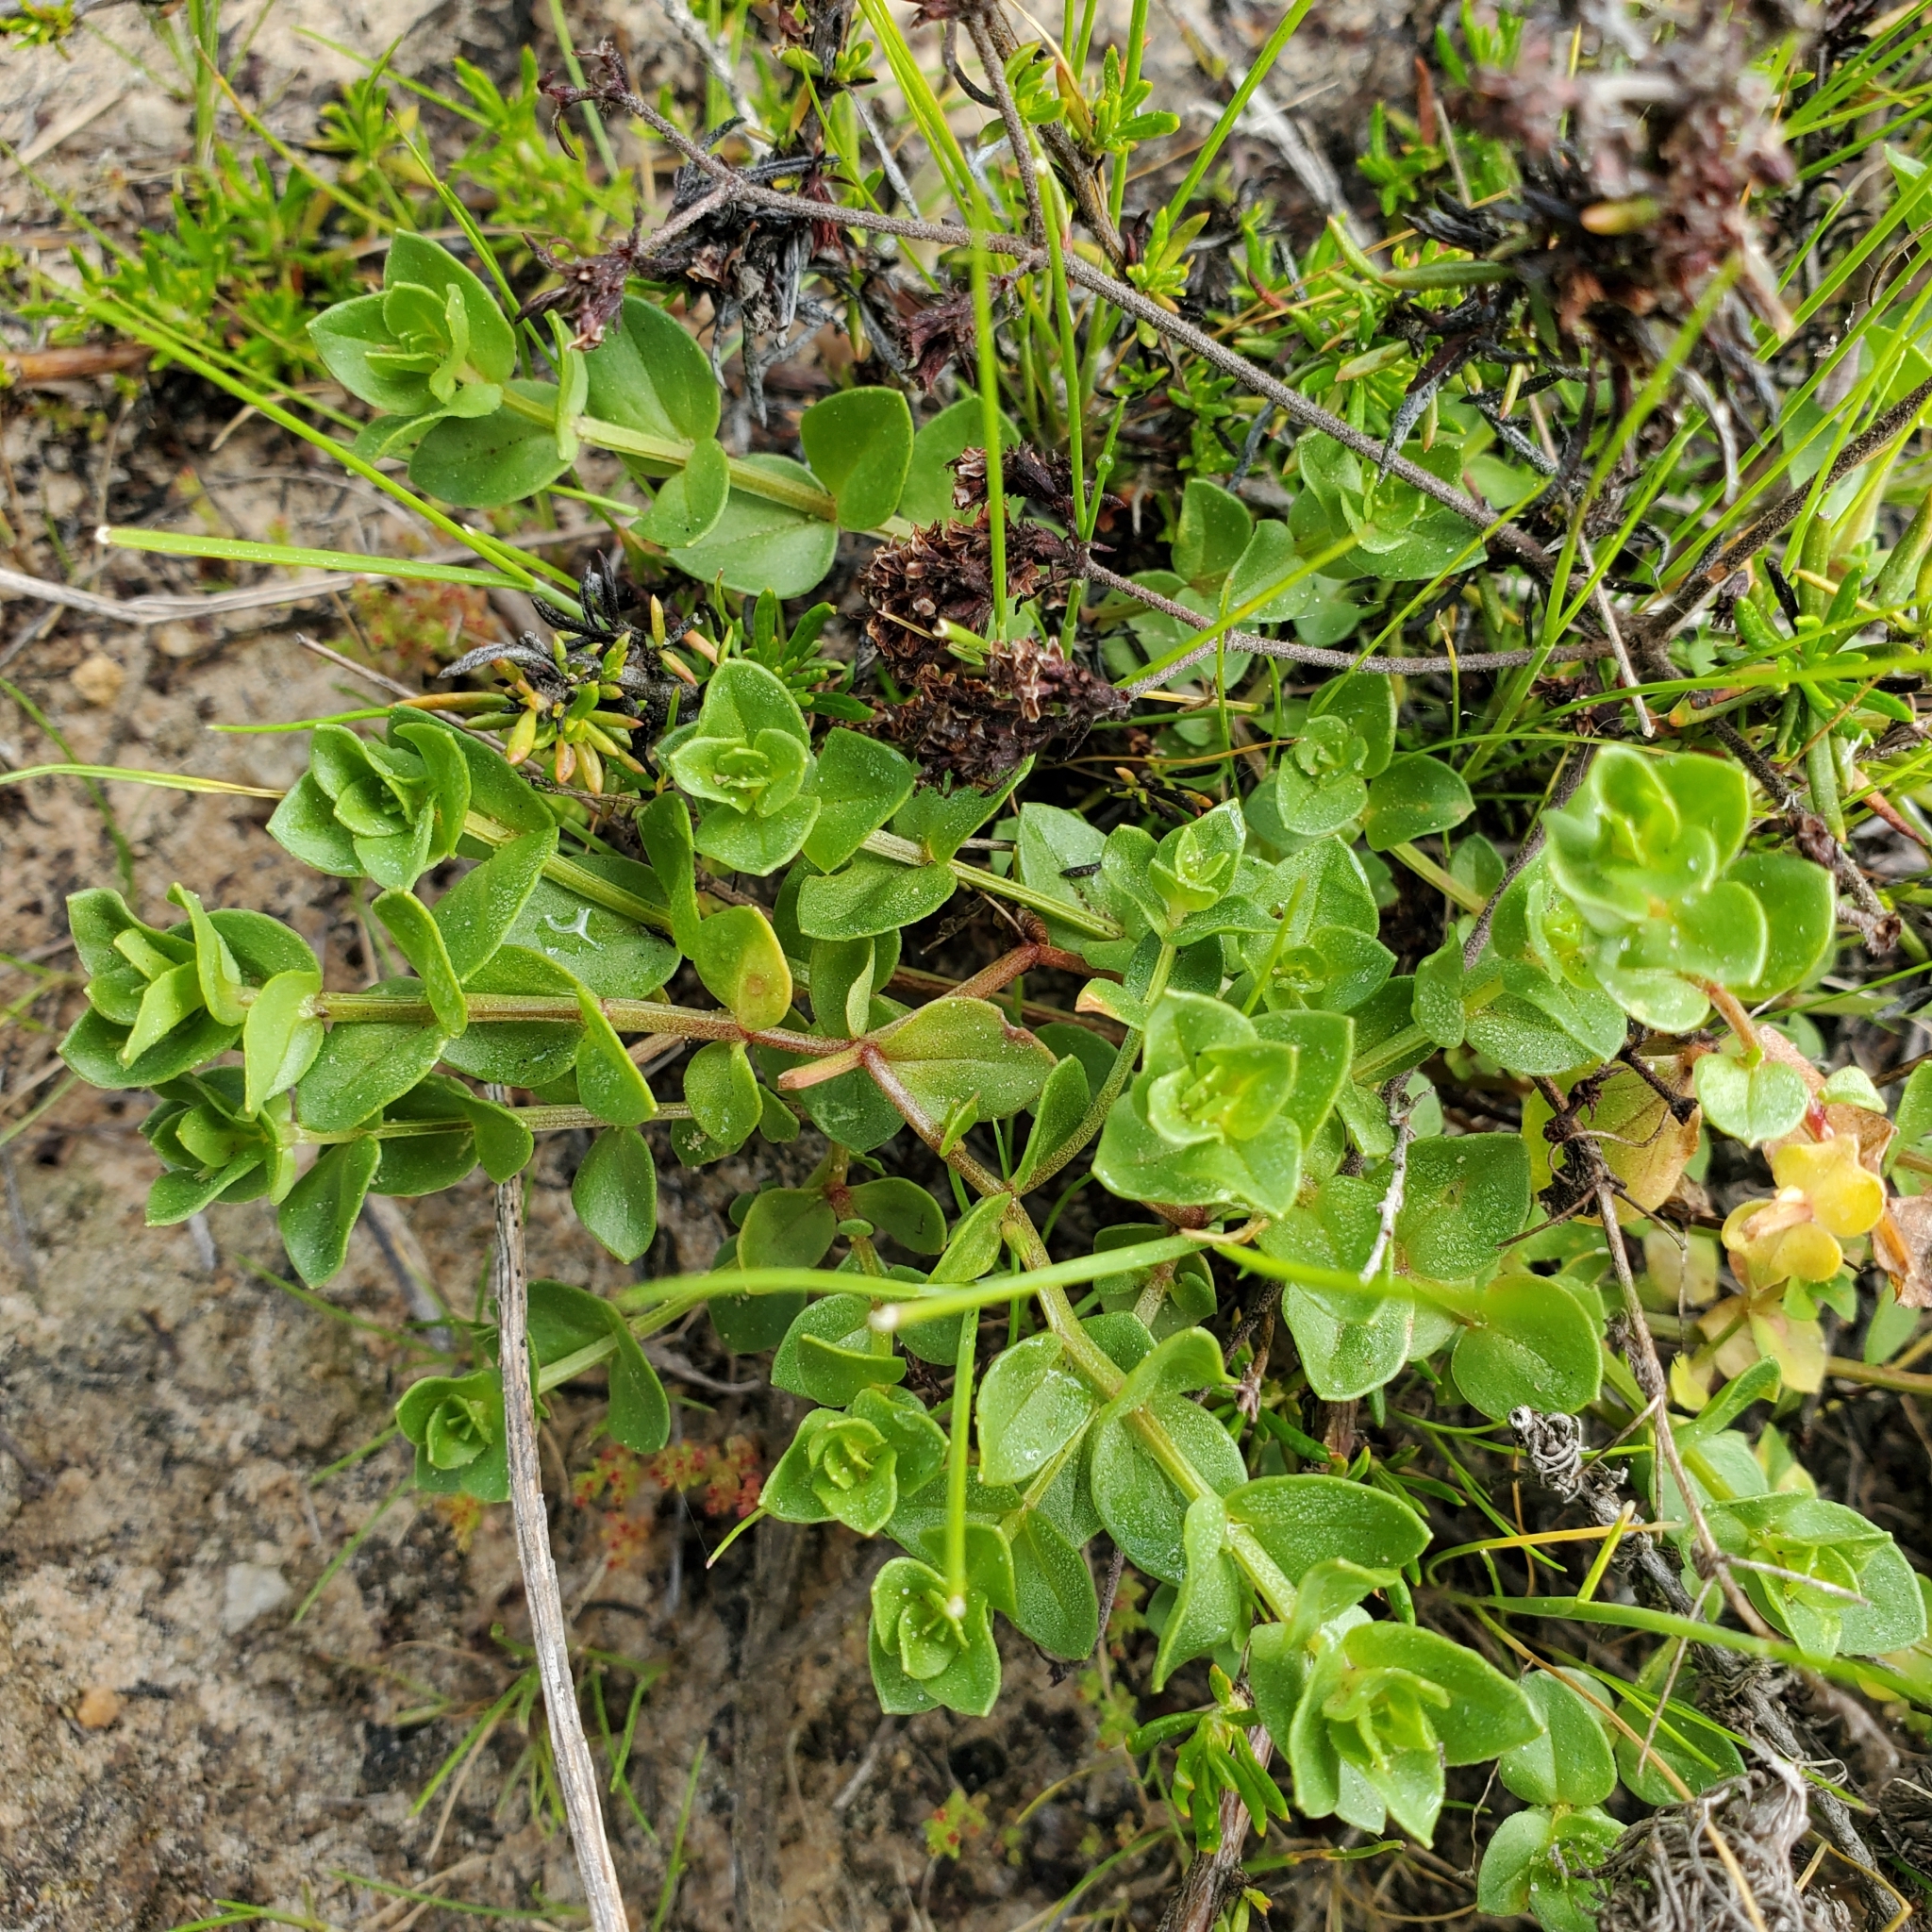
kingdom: Plantae
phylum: Tracheophyta
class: Magnoliopsida
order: Ericales
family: Primulaceae
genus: Lysimachia
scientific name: Lysimachia arvensis
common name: Scarlet pimpernel
